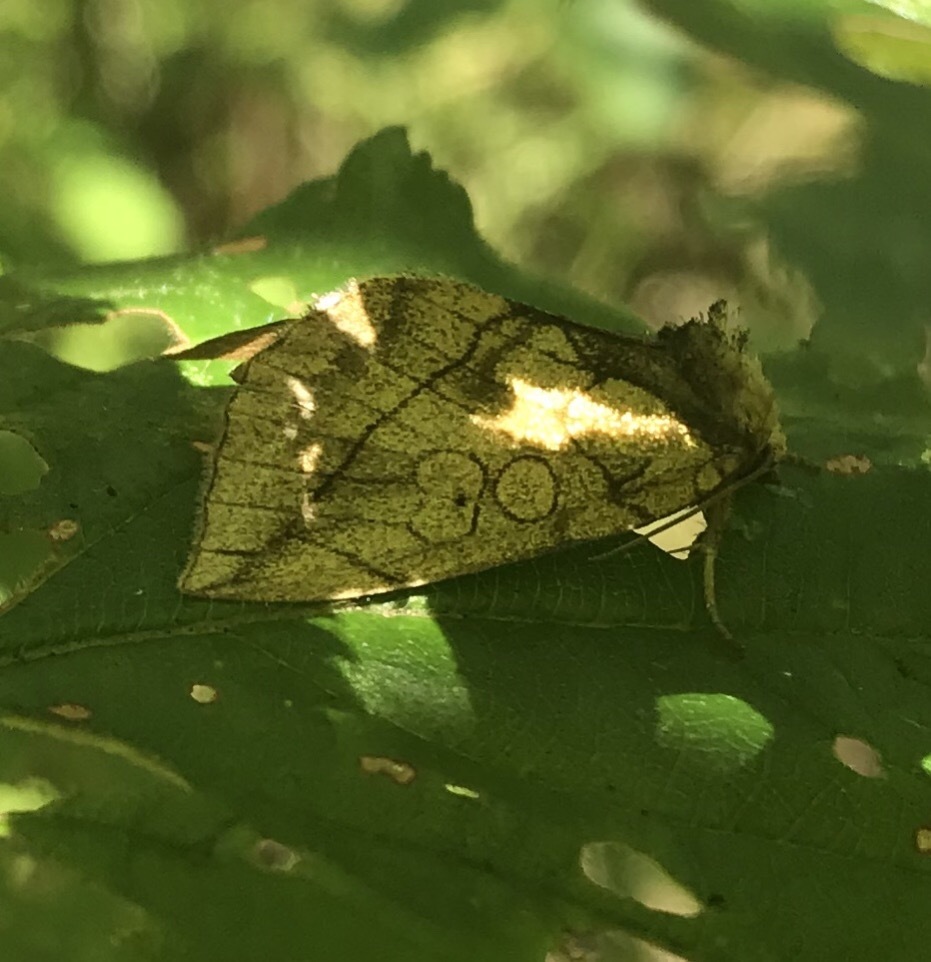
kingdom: Animalia
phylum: Arthropoda
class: Insecta
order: Lepidoptera
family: Noctuidae
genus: Basilodes
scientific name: Basilodes pepita
